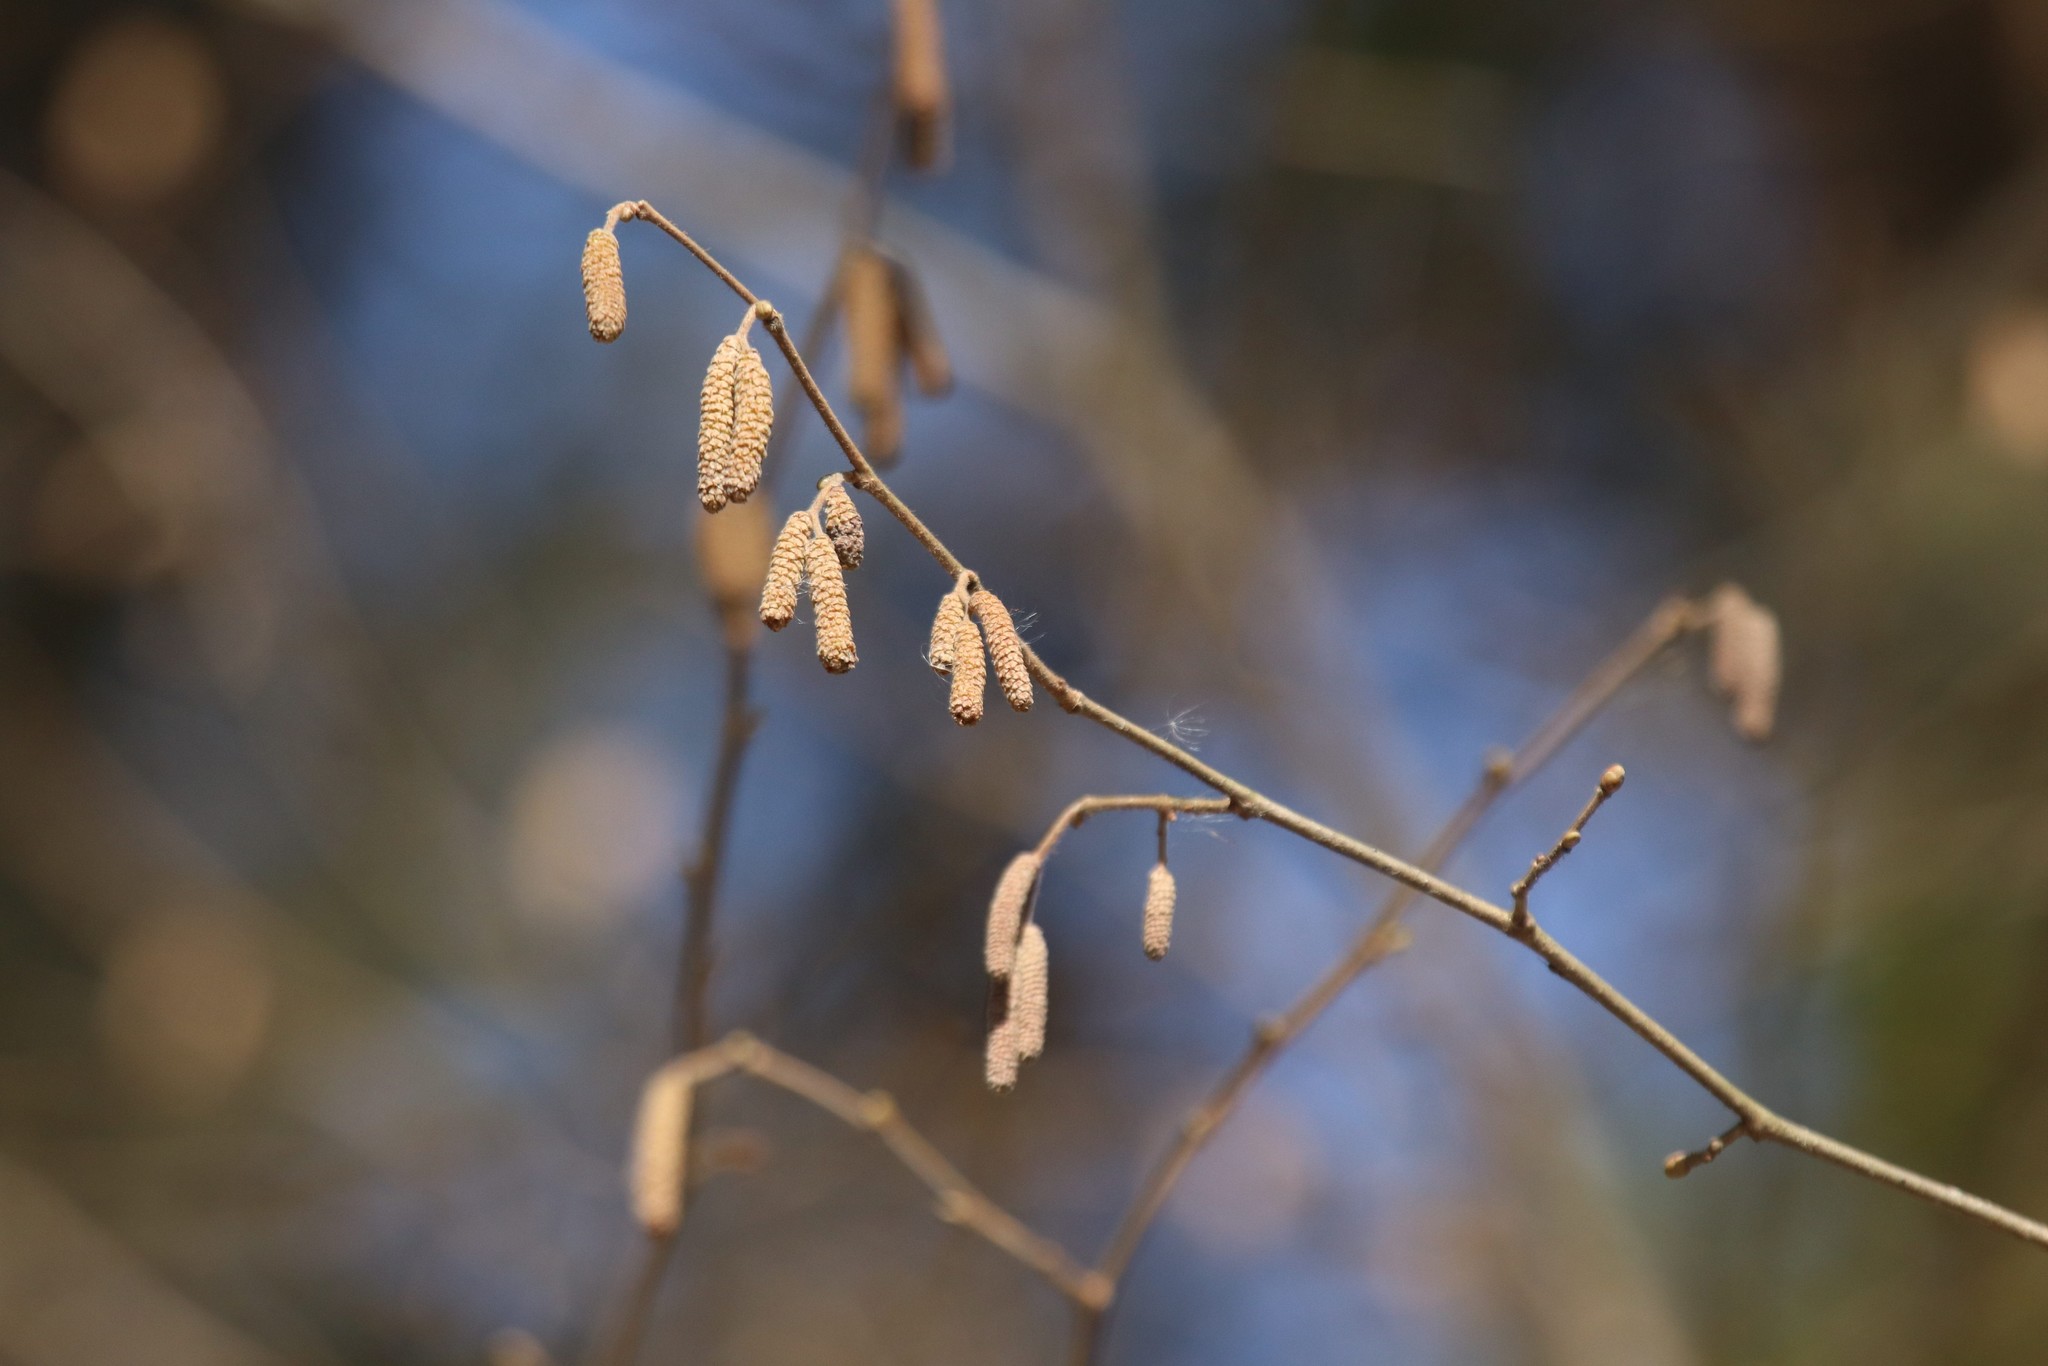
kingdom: Plantae
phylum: Tracheophyta
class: Magnoliopsida
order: Fagales
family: Betulaceae
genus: Corylus
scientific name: Corylus avellana
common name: European hazel
